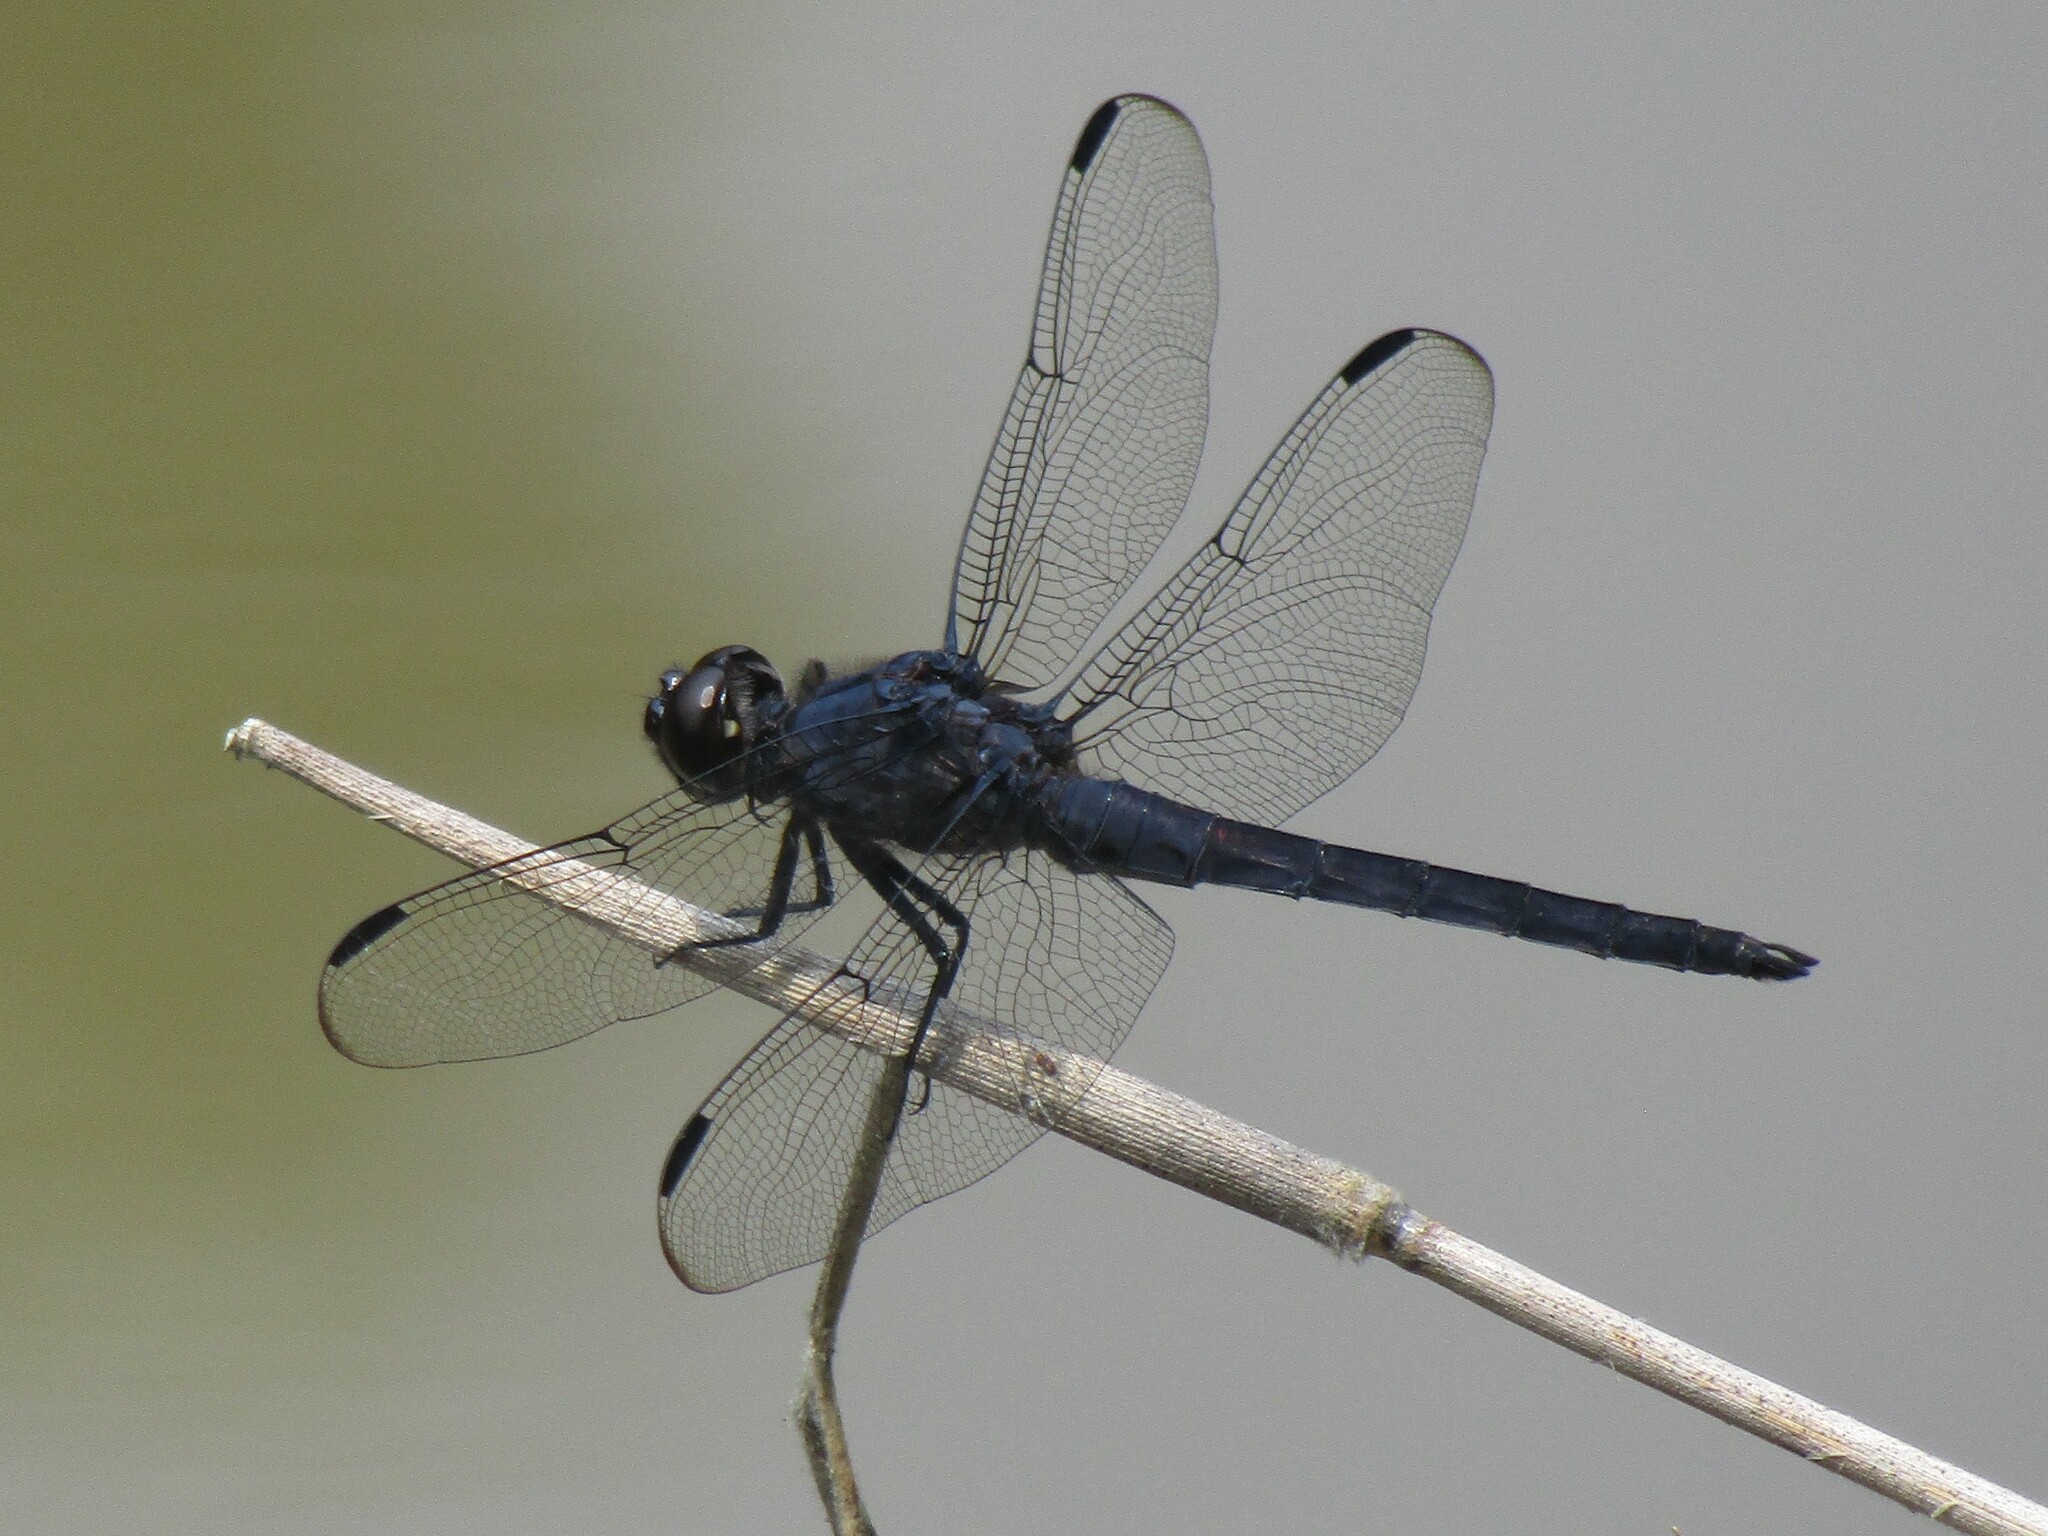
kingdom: Animalia
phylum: Arthropoda
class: Insecta
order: Odonata
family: Libellulidae
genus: Libellula
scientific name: Libellula incesta
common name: Slaty skimmer
